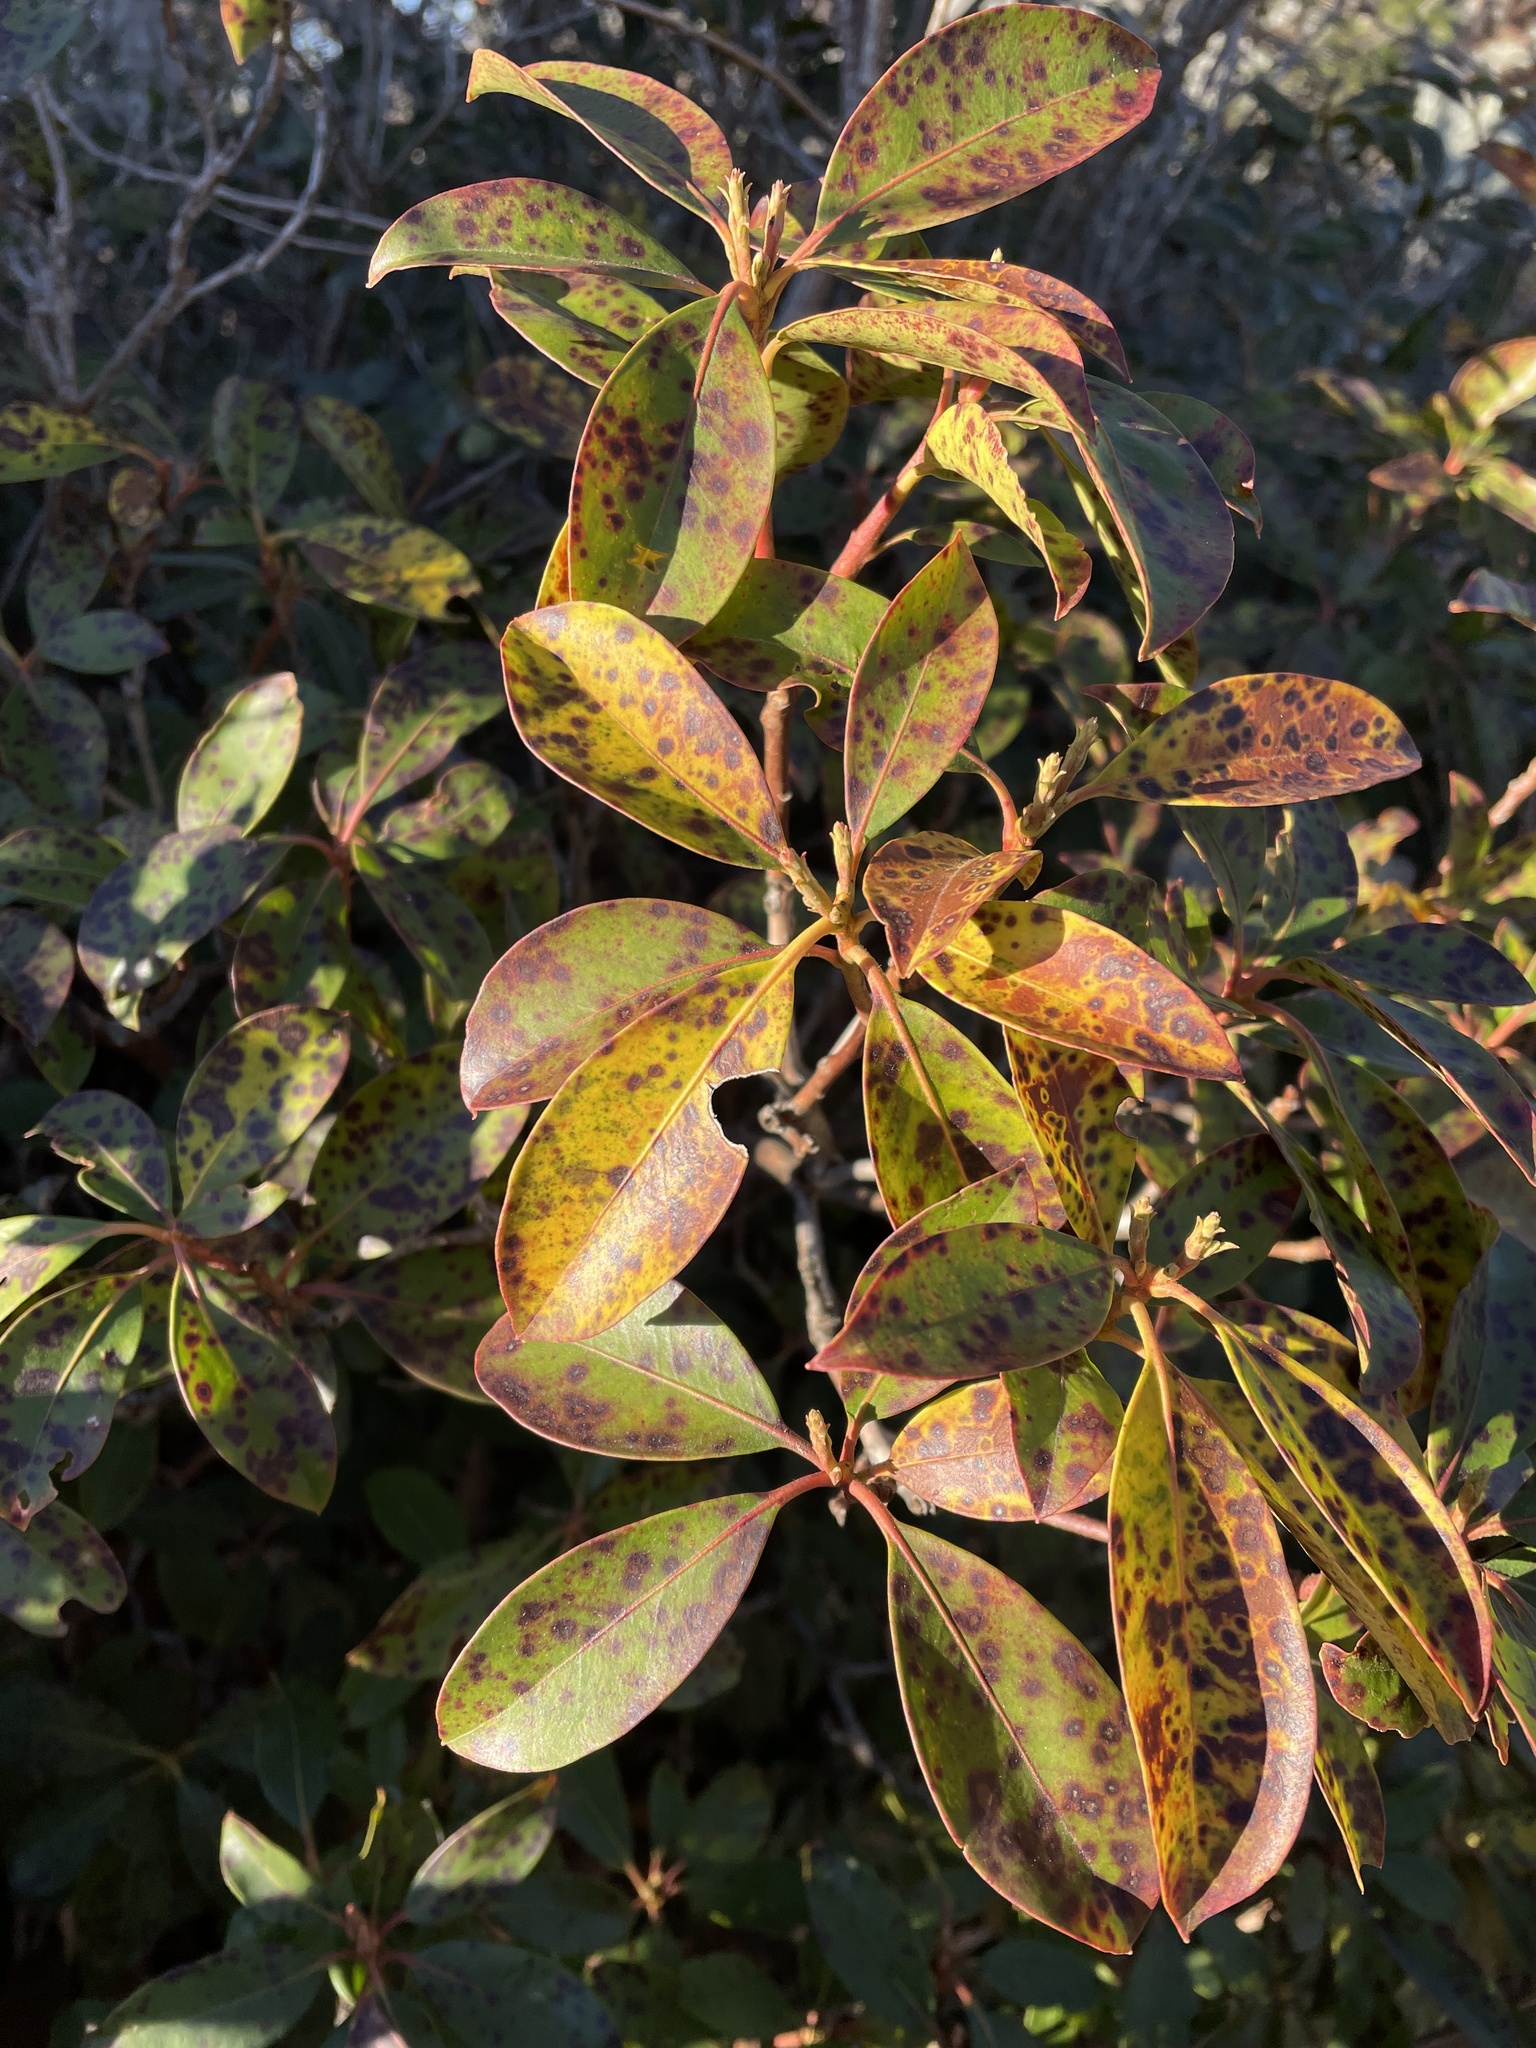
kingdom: Fungi
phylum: Ascomycota
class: Dothideomycetes
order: Mycosphaerellales
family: Mycosphaerellaceae
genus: Mycosphaerella
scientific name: Mycosphaerella colorata
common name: Mountain laurel leaf spot
